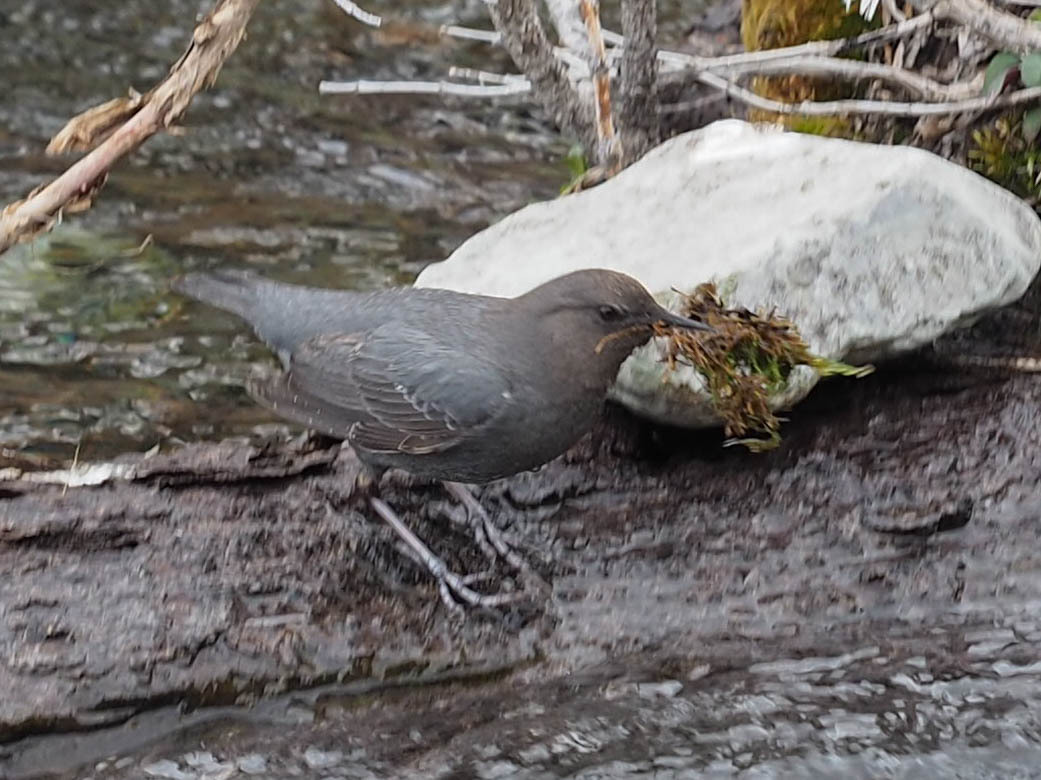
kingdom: Animalia
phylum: Chordata
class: Aves
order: Passeriformes
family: Cinclidae
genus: Cinclus
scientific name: Cinclus mexicanus
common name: American dipper
